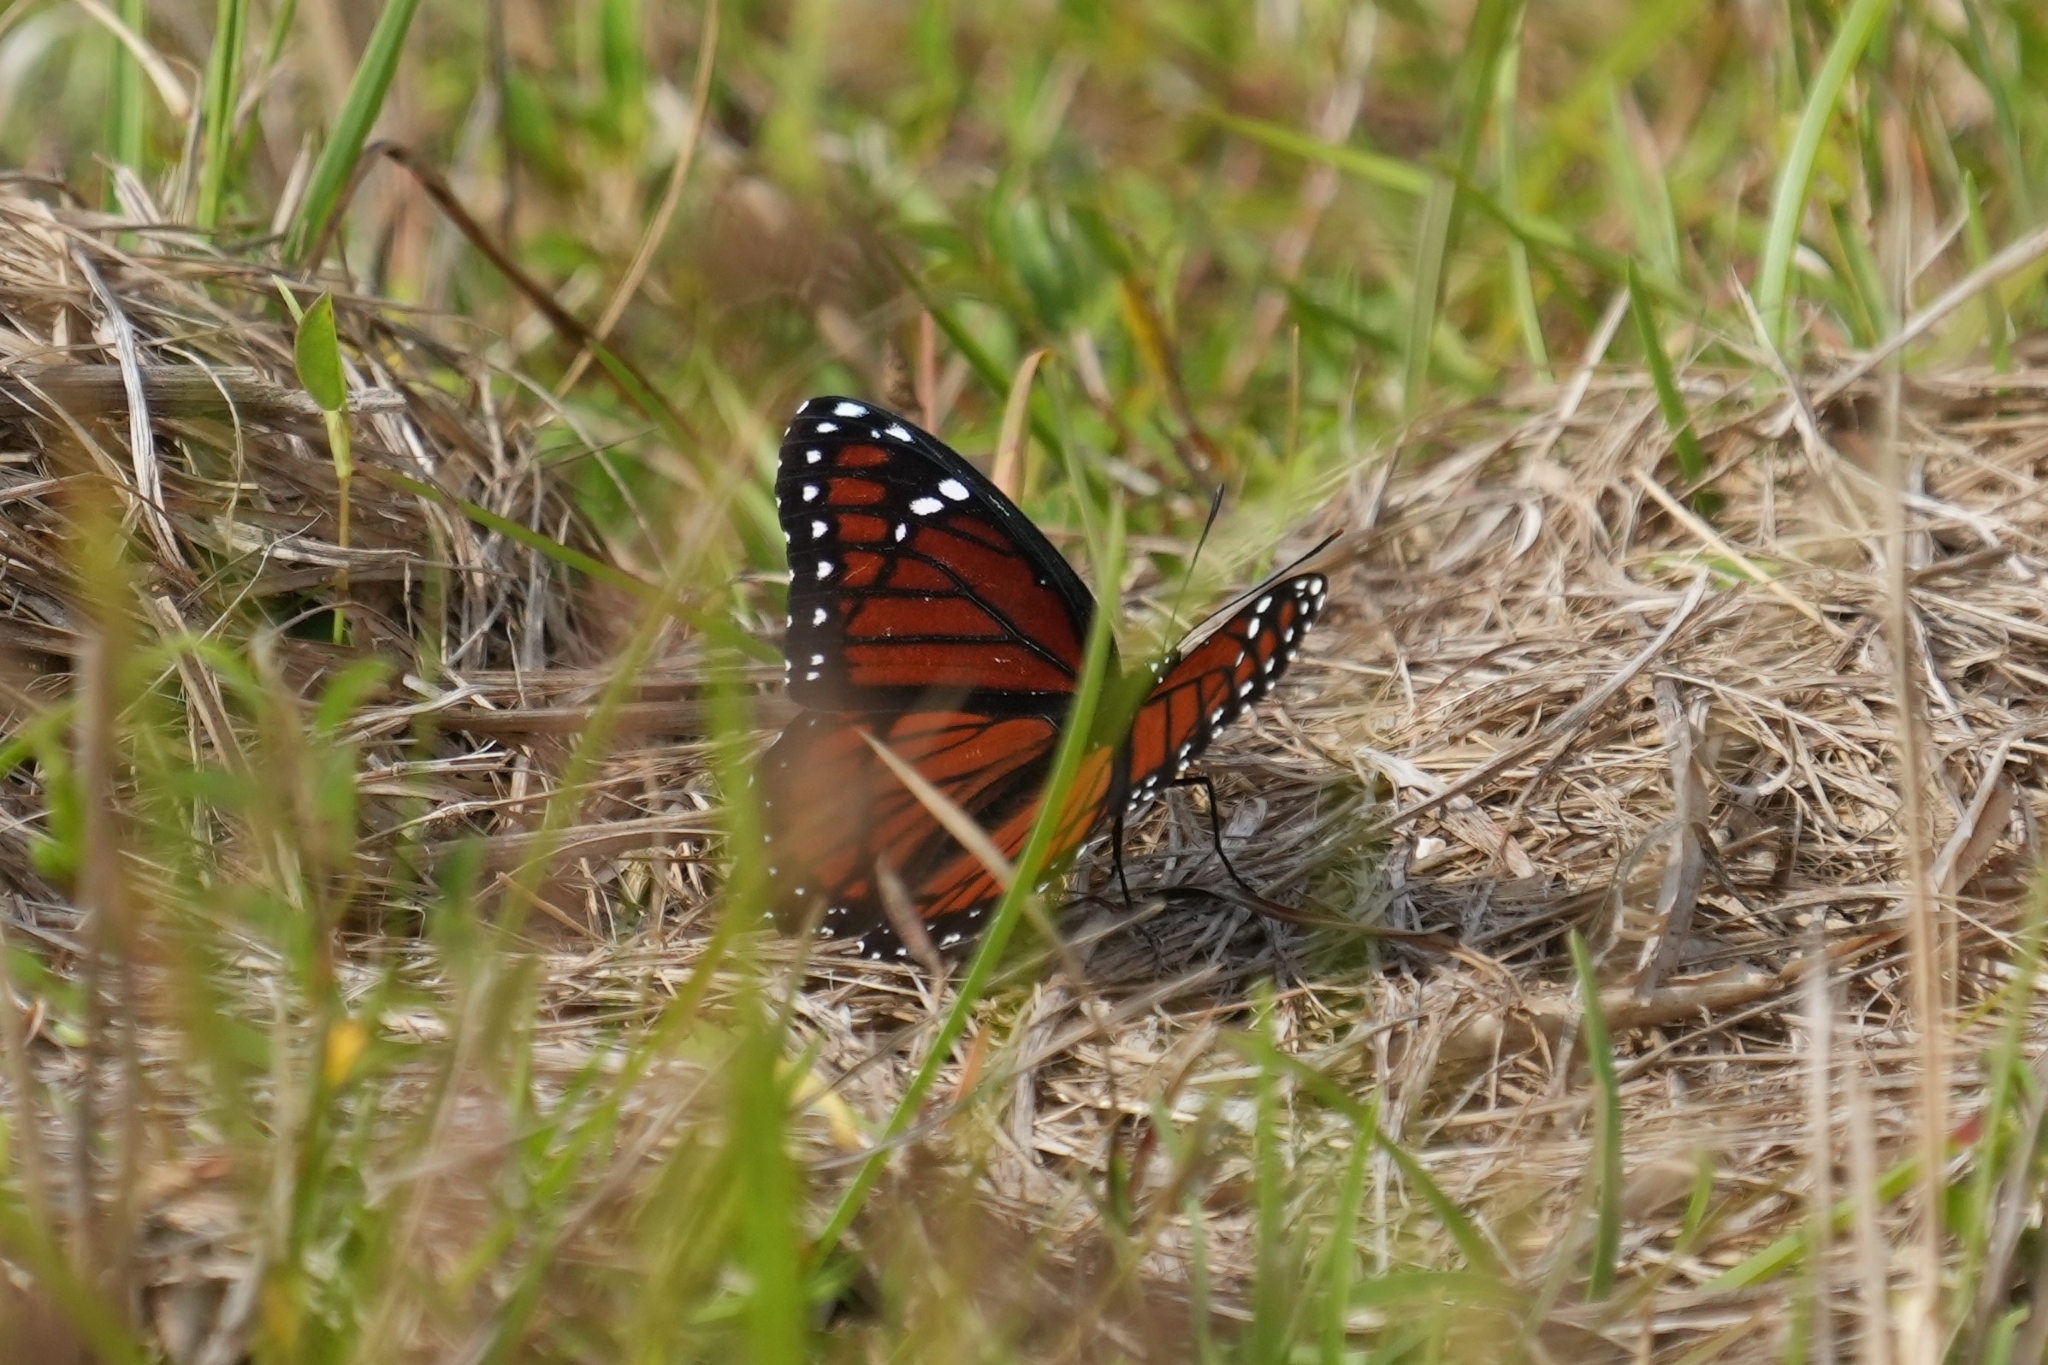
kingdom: Animalia
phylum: Arthropoda
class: Insecta
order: Lepidoptera
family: Nymphalidae
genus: Limenitis
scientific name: Limenitis archippus
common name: Viceroy
